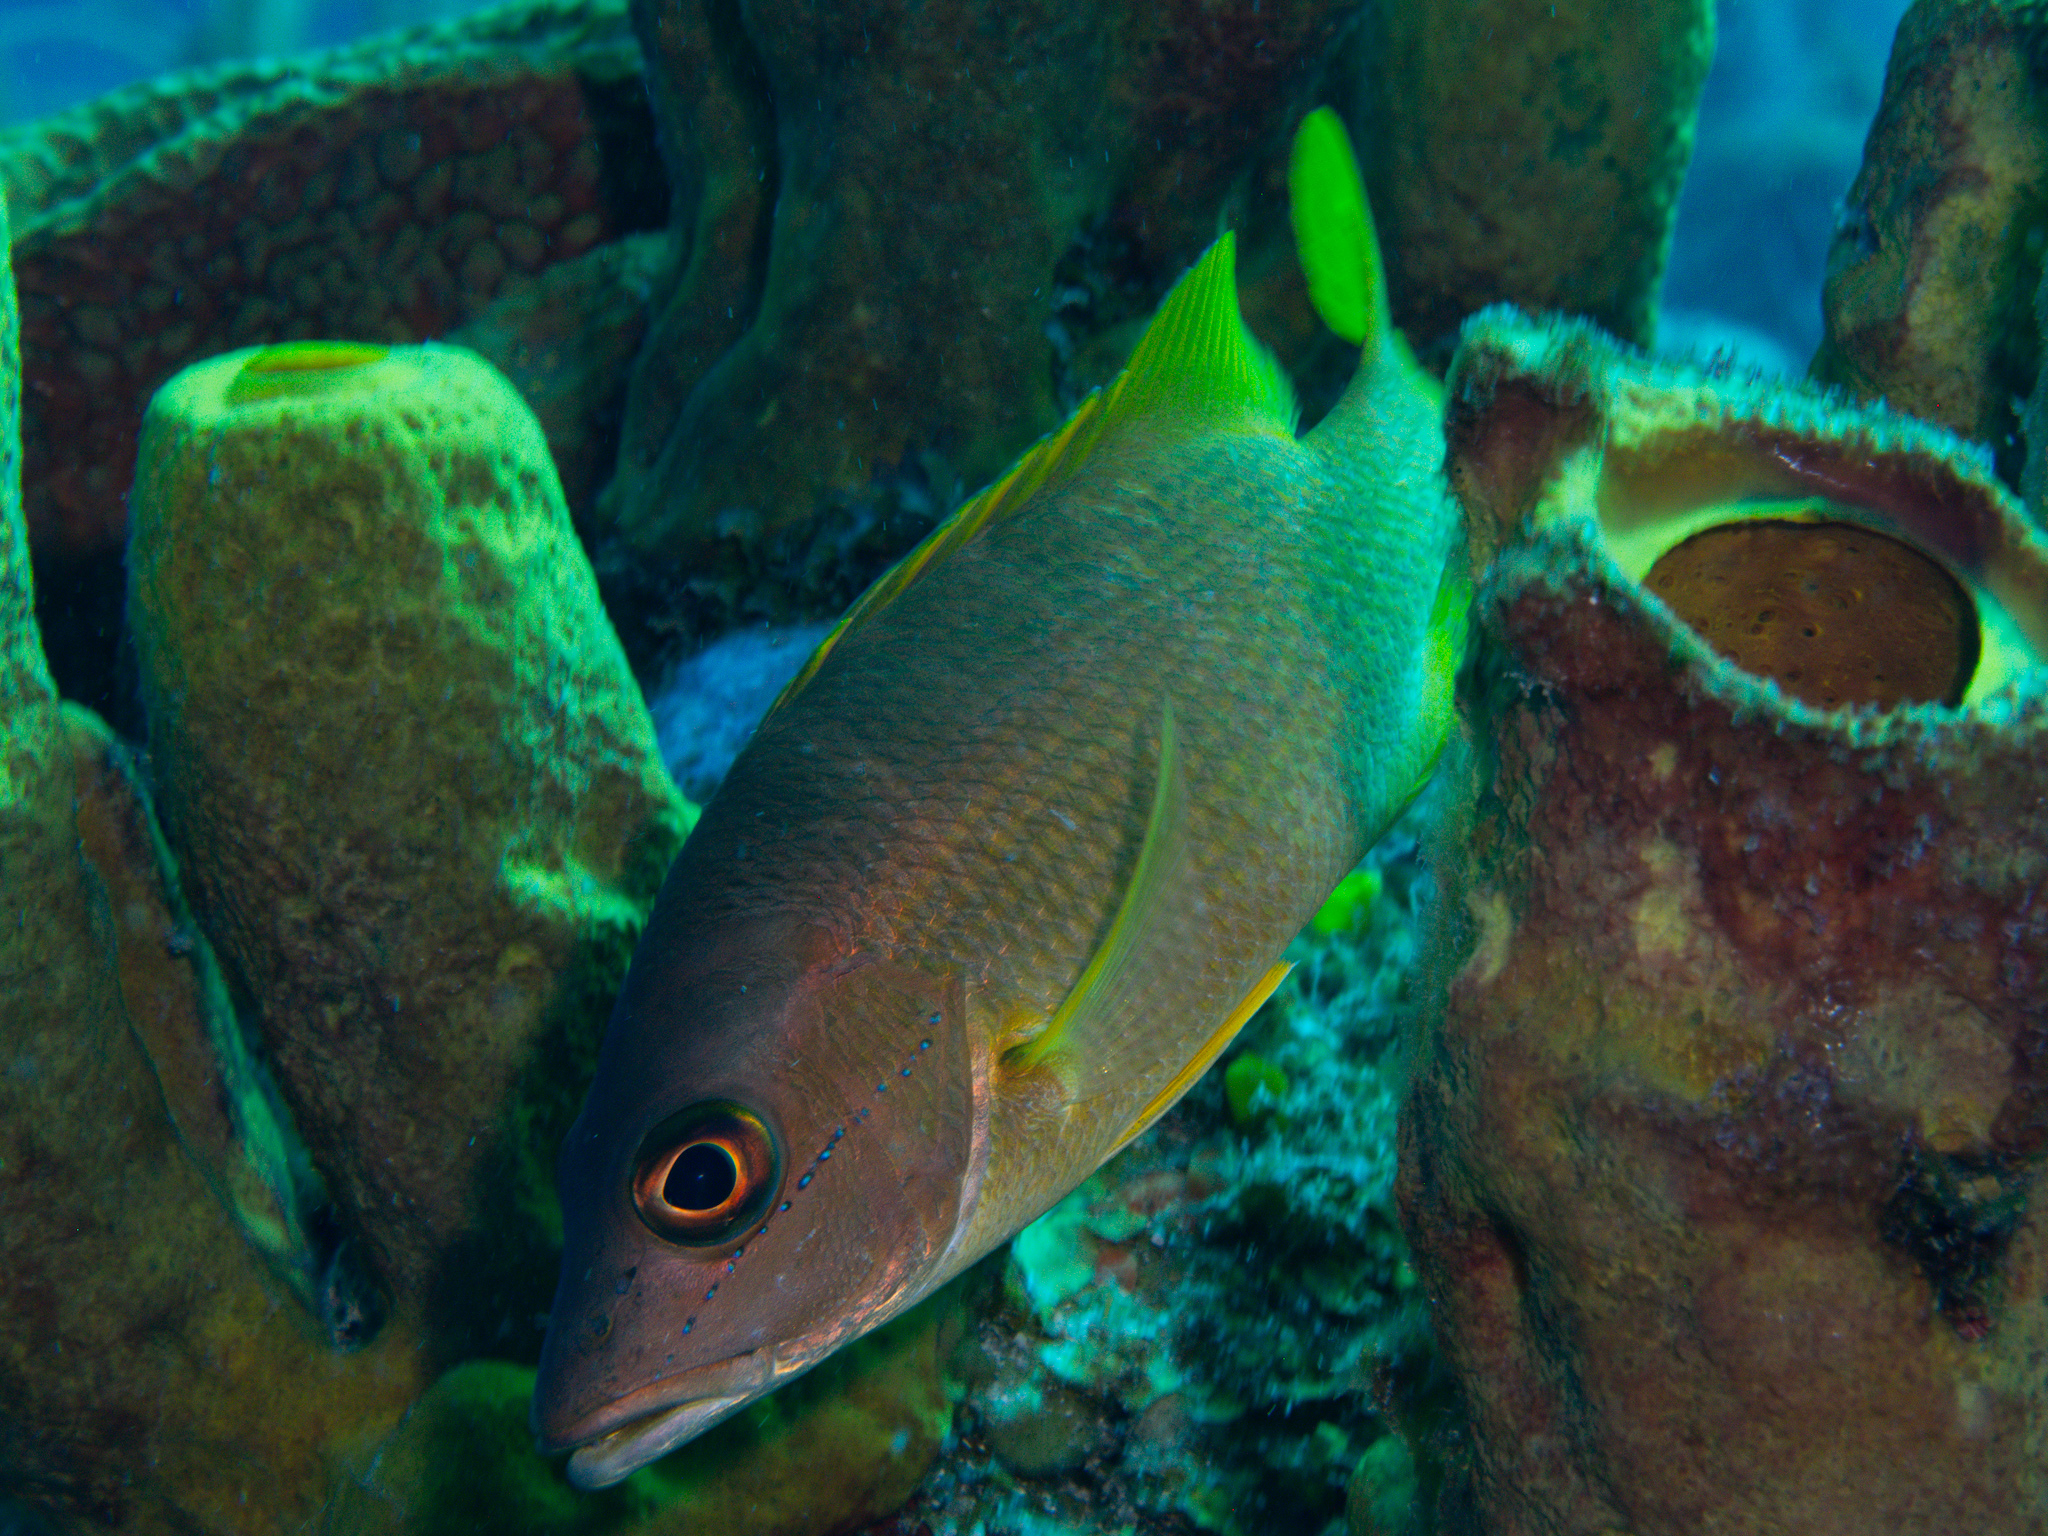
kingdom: Animalia
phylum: Chordata
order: Perciformes
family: Lutjanidae
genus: Lutjanus
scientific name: Lutjanus apodus
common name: Schoolmaster
